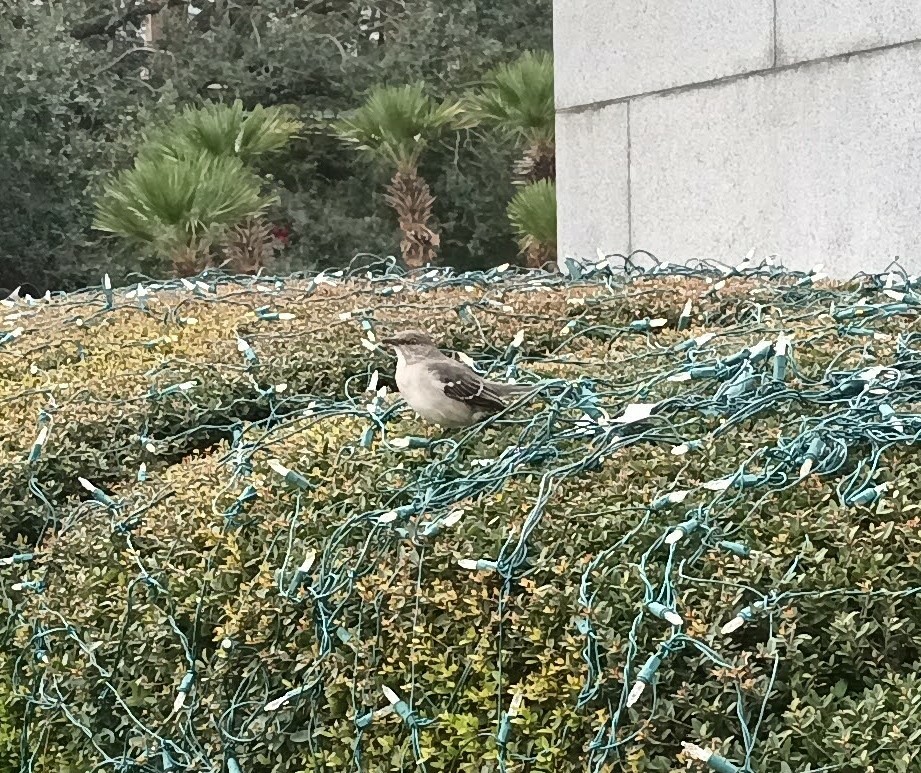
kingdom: Animalia
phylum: Chordata
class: Aves
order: Passeriformes
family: Mimidae
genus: Mimus
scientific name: Mimus polyglottos
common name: Northern mockingbird
